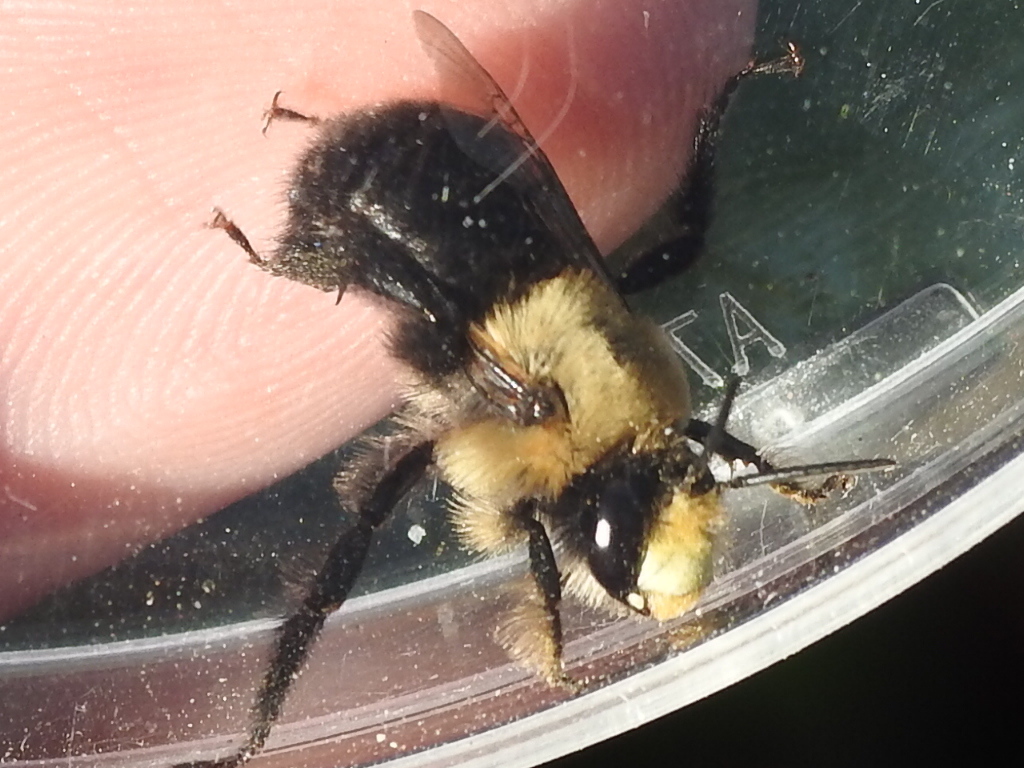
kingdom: Animalia
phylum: Arthropoda
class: Insecta
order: Hymenoptera
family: Apidae
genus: Anthophora
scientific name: Anthophora abrupta
